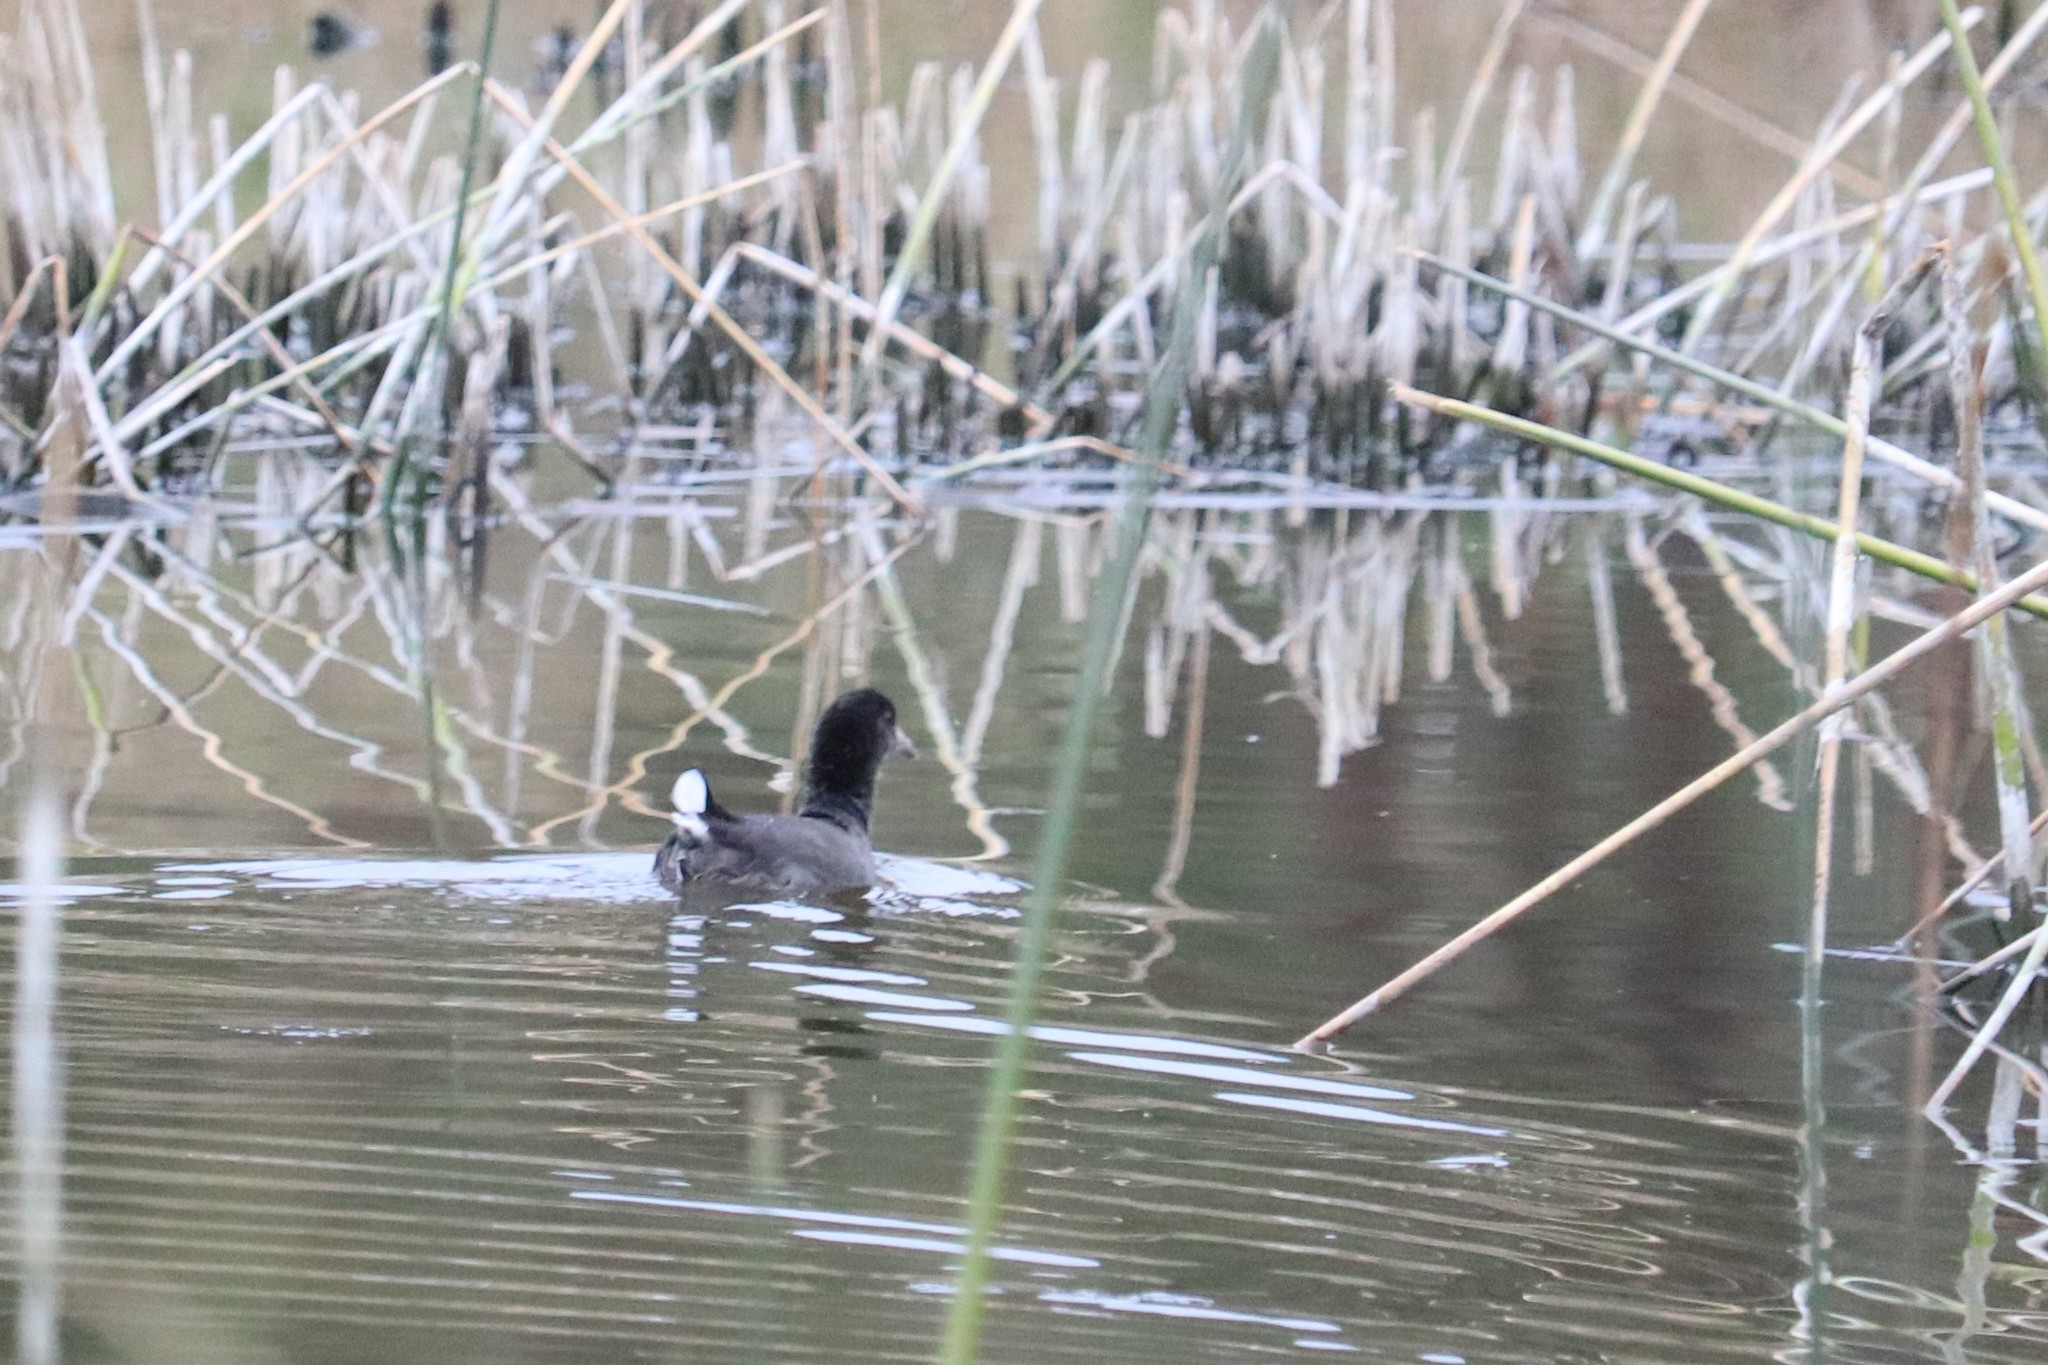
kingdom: Animalia
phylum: Chordata
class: Aves
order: Gruiformes
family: Rallidae
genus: Fulica
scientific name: Fulica americana
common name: American coot
